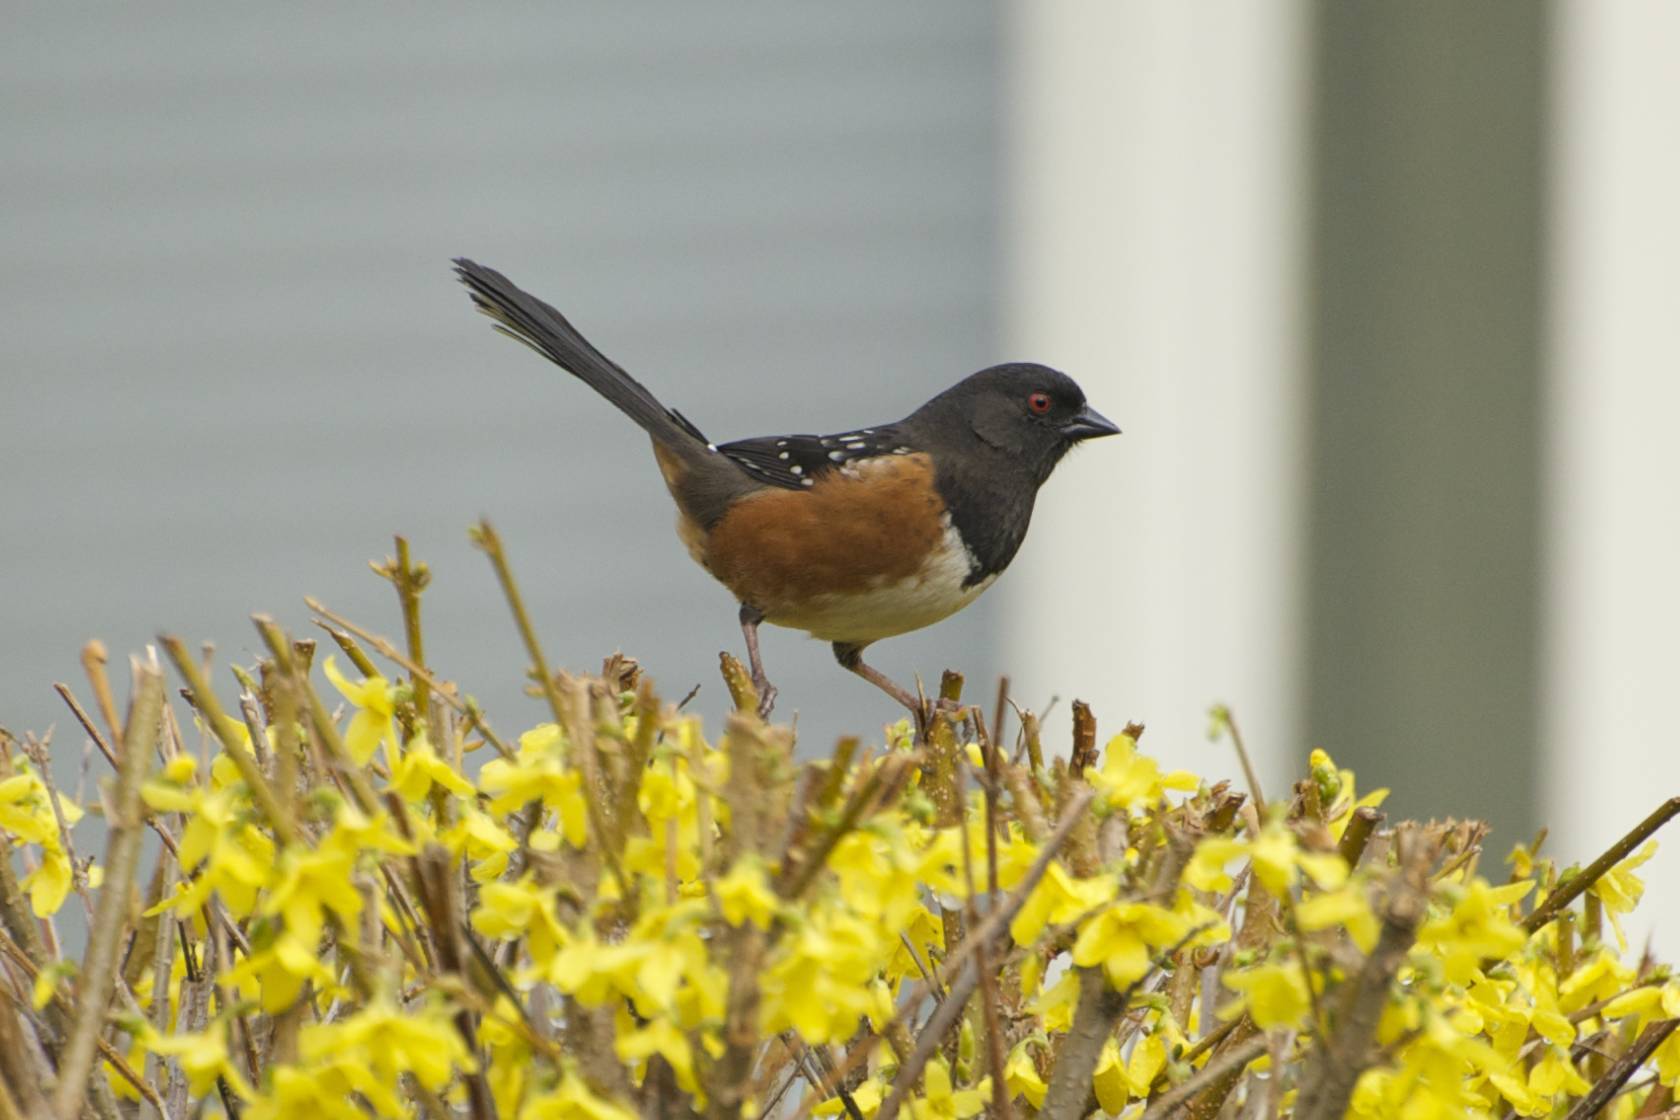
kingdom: Animalia
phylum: Chordata
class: Aves
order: Passeriformes
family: Passerellidae
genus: Pipilo
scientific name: Pipilo maculatus
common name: Spotted towhee
